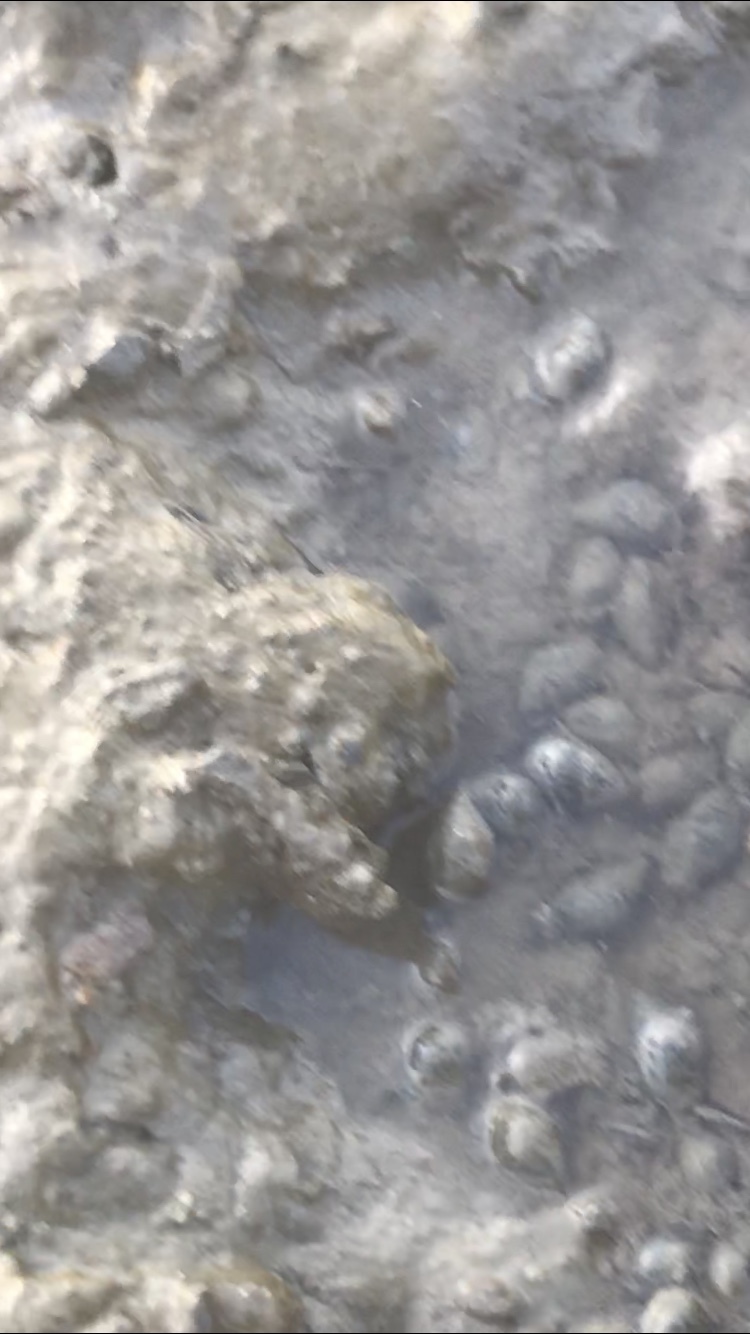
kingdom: Animalia
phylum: Mollusca
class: Gastropoda
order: Neogastropoda
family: Nassariidae
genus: Ilyanassa
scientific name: Ilyanassa obsoleta
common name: Eastern mudsnail
